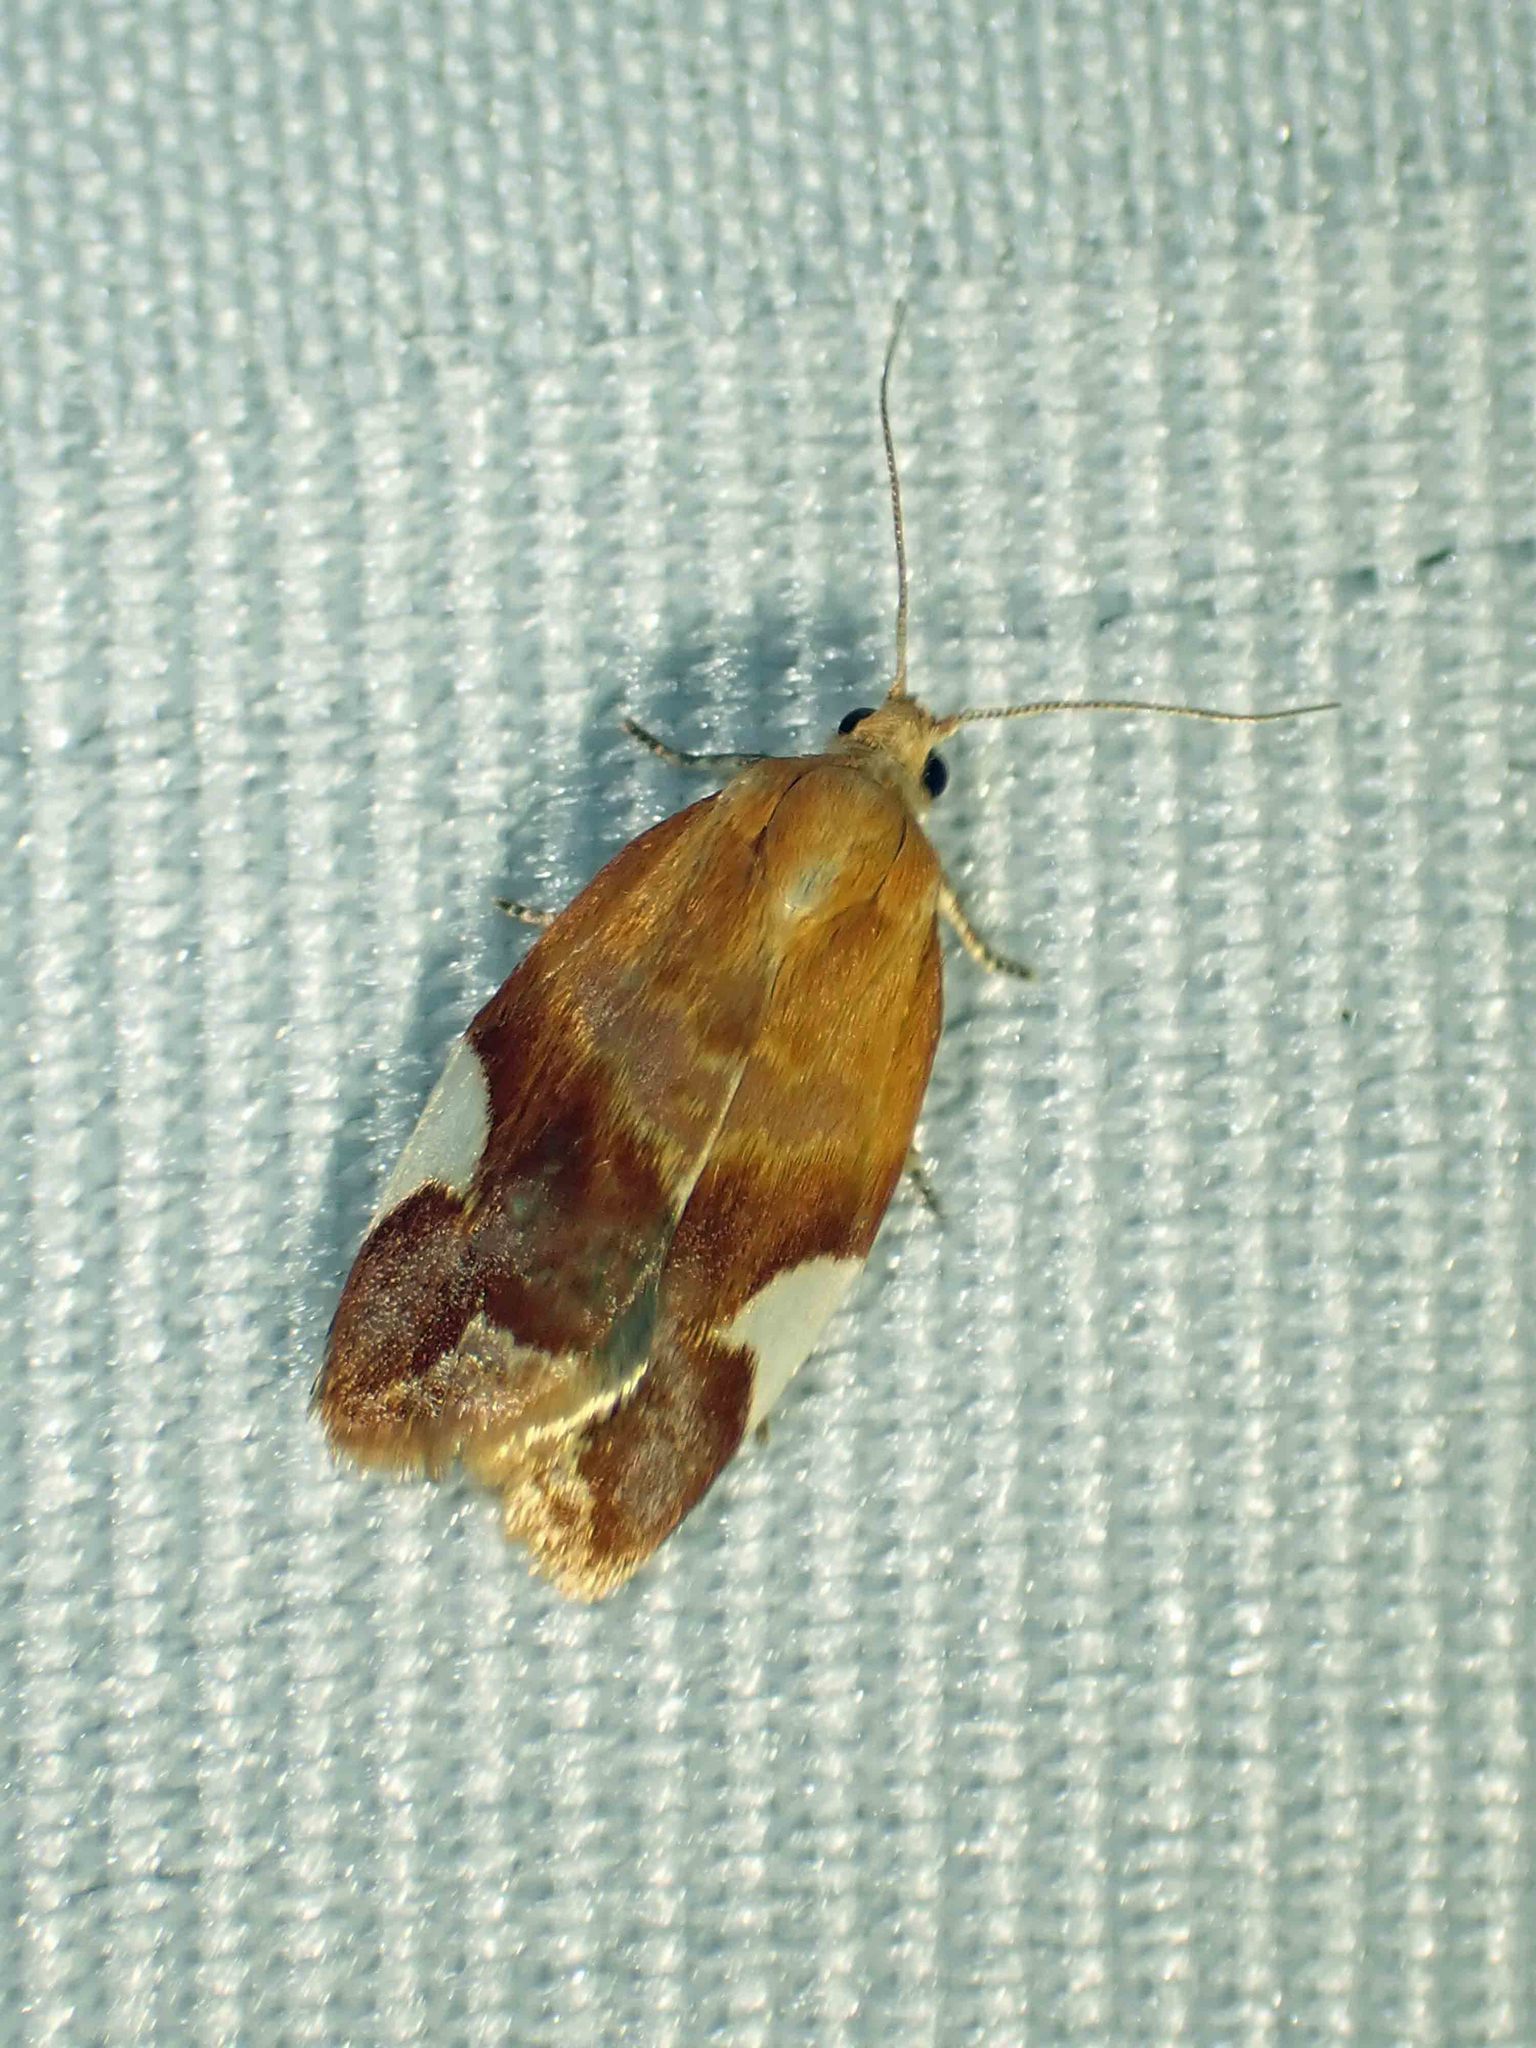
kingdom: Animalia
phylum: Arthropoda
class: Insecta
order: Lepidoptera
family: Tortricidae
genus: Clepsis
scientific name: Clepsis persicana
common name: White triangle tortrix
